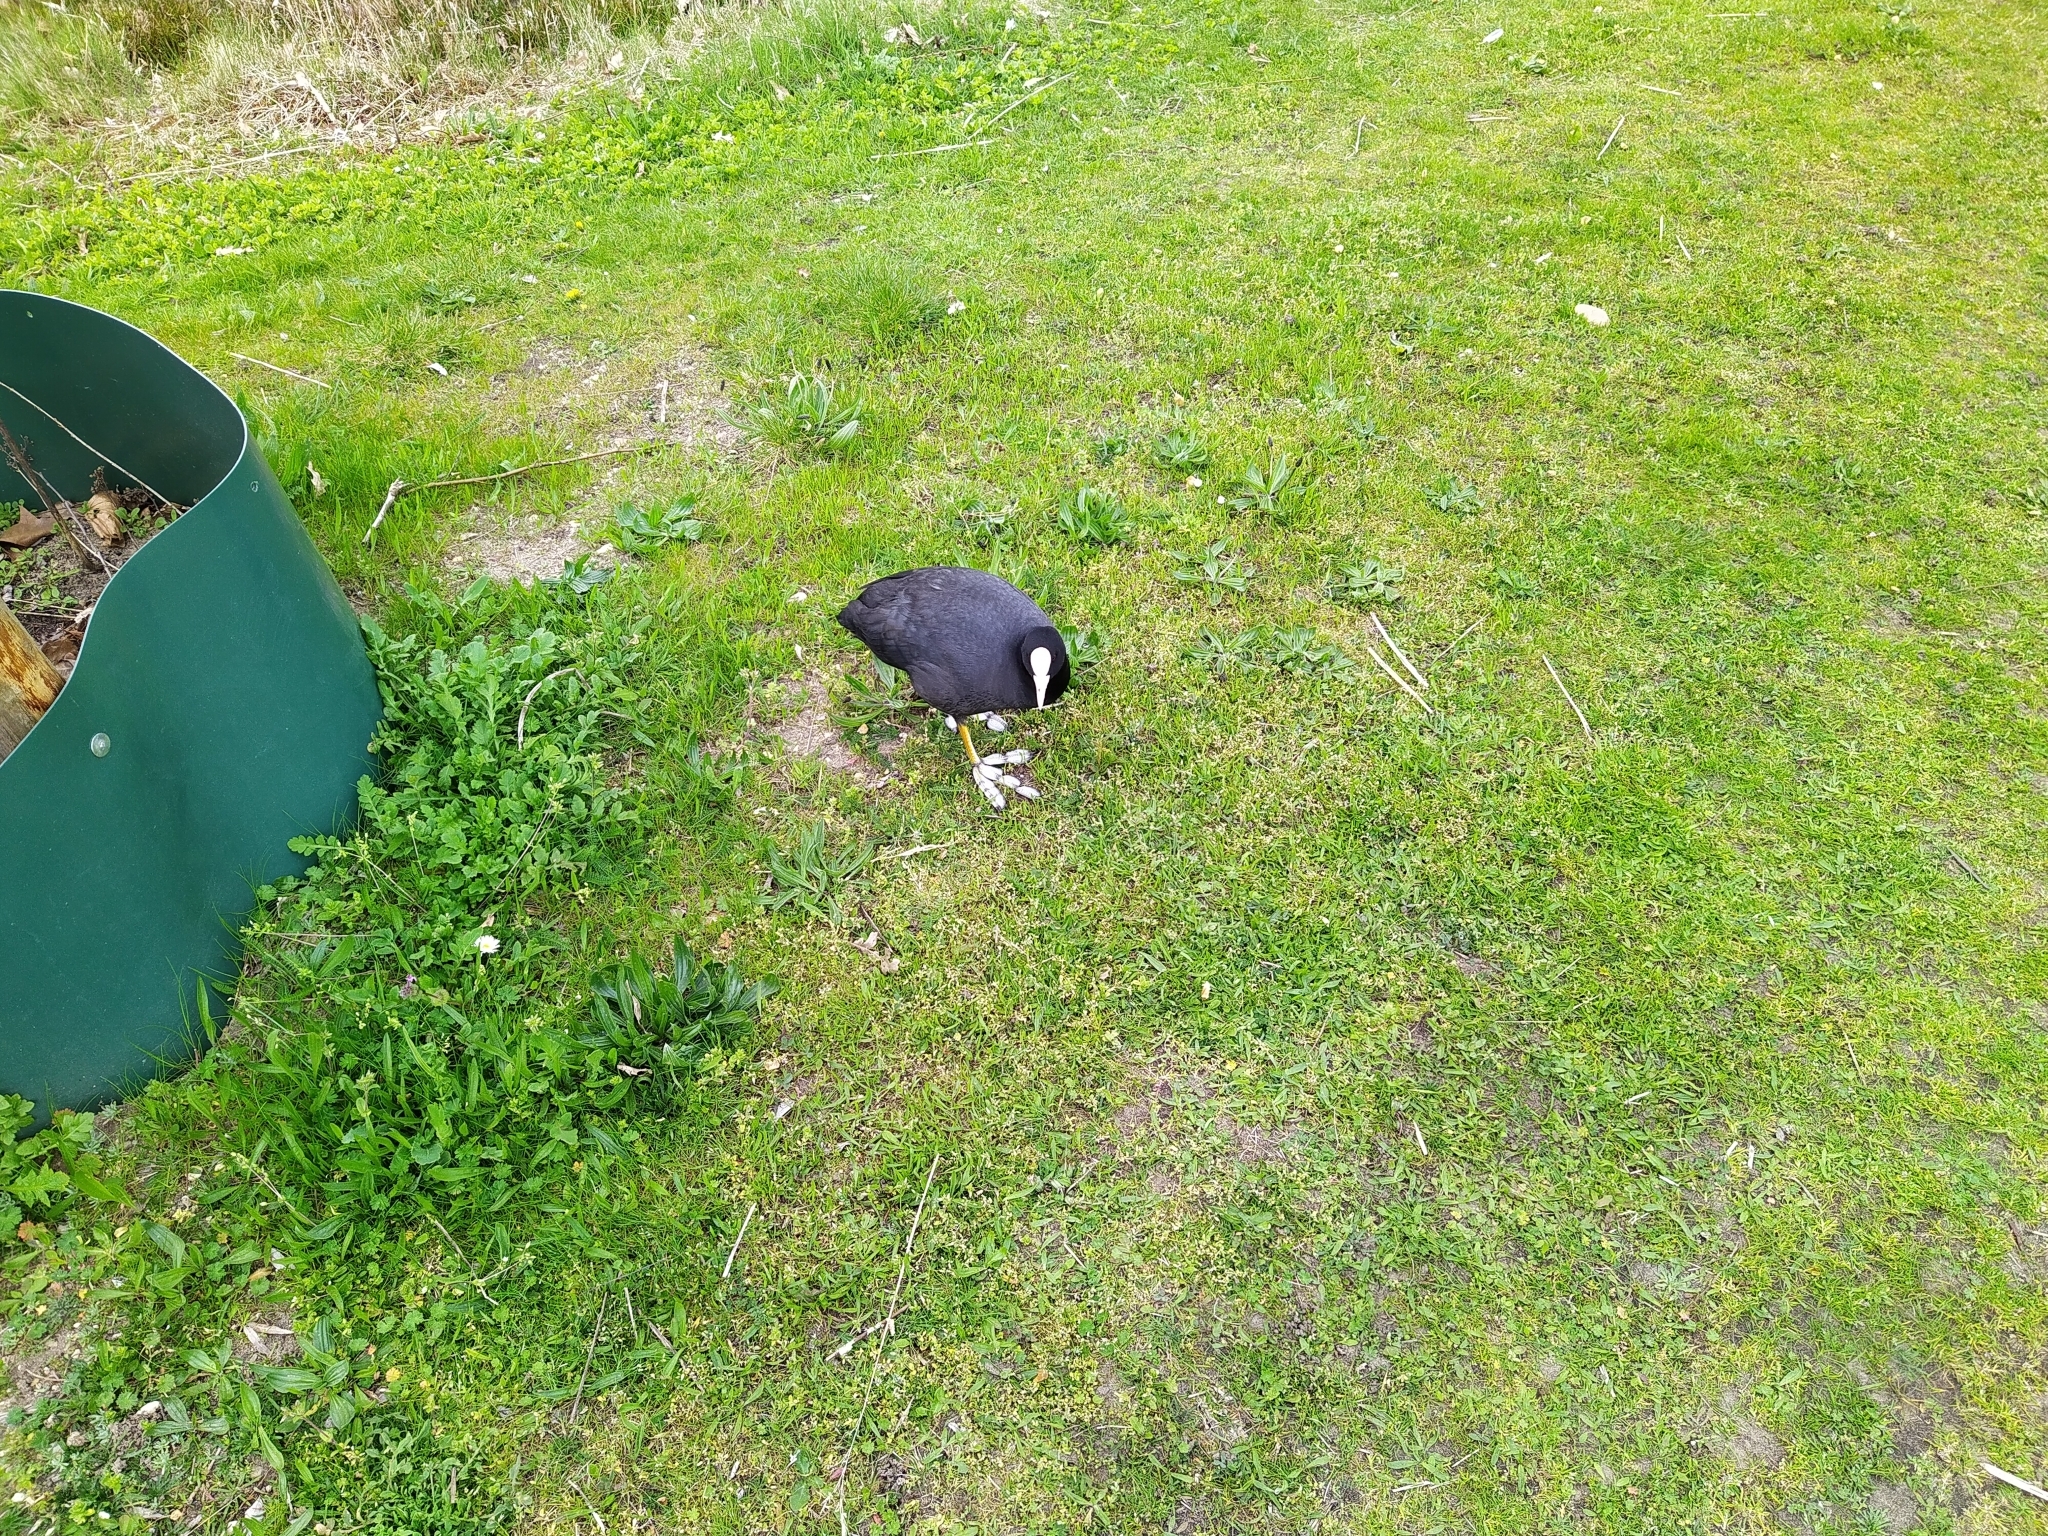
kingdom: Animalia
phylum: Chordata
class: Aves
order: Gruiformes
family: Rallidae
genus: Fulica
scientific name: Fulica atra
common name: Eurasian coot
